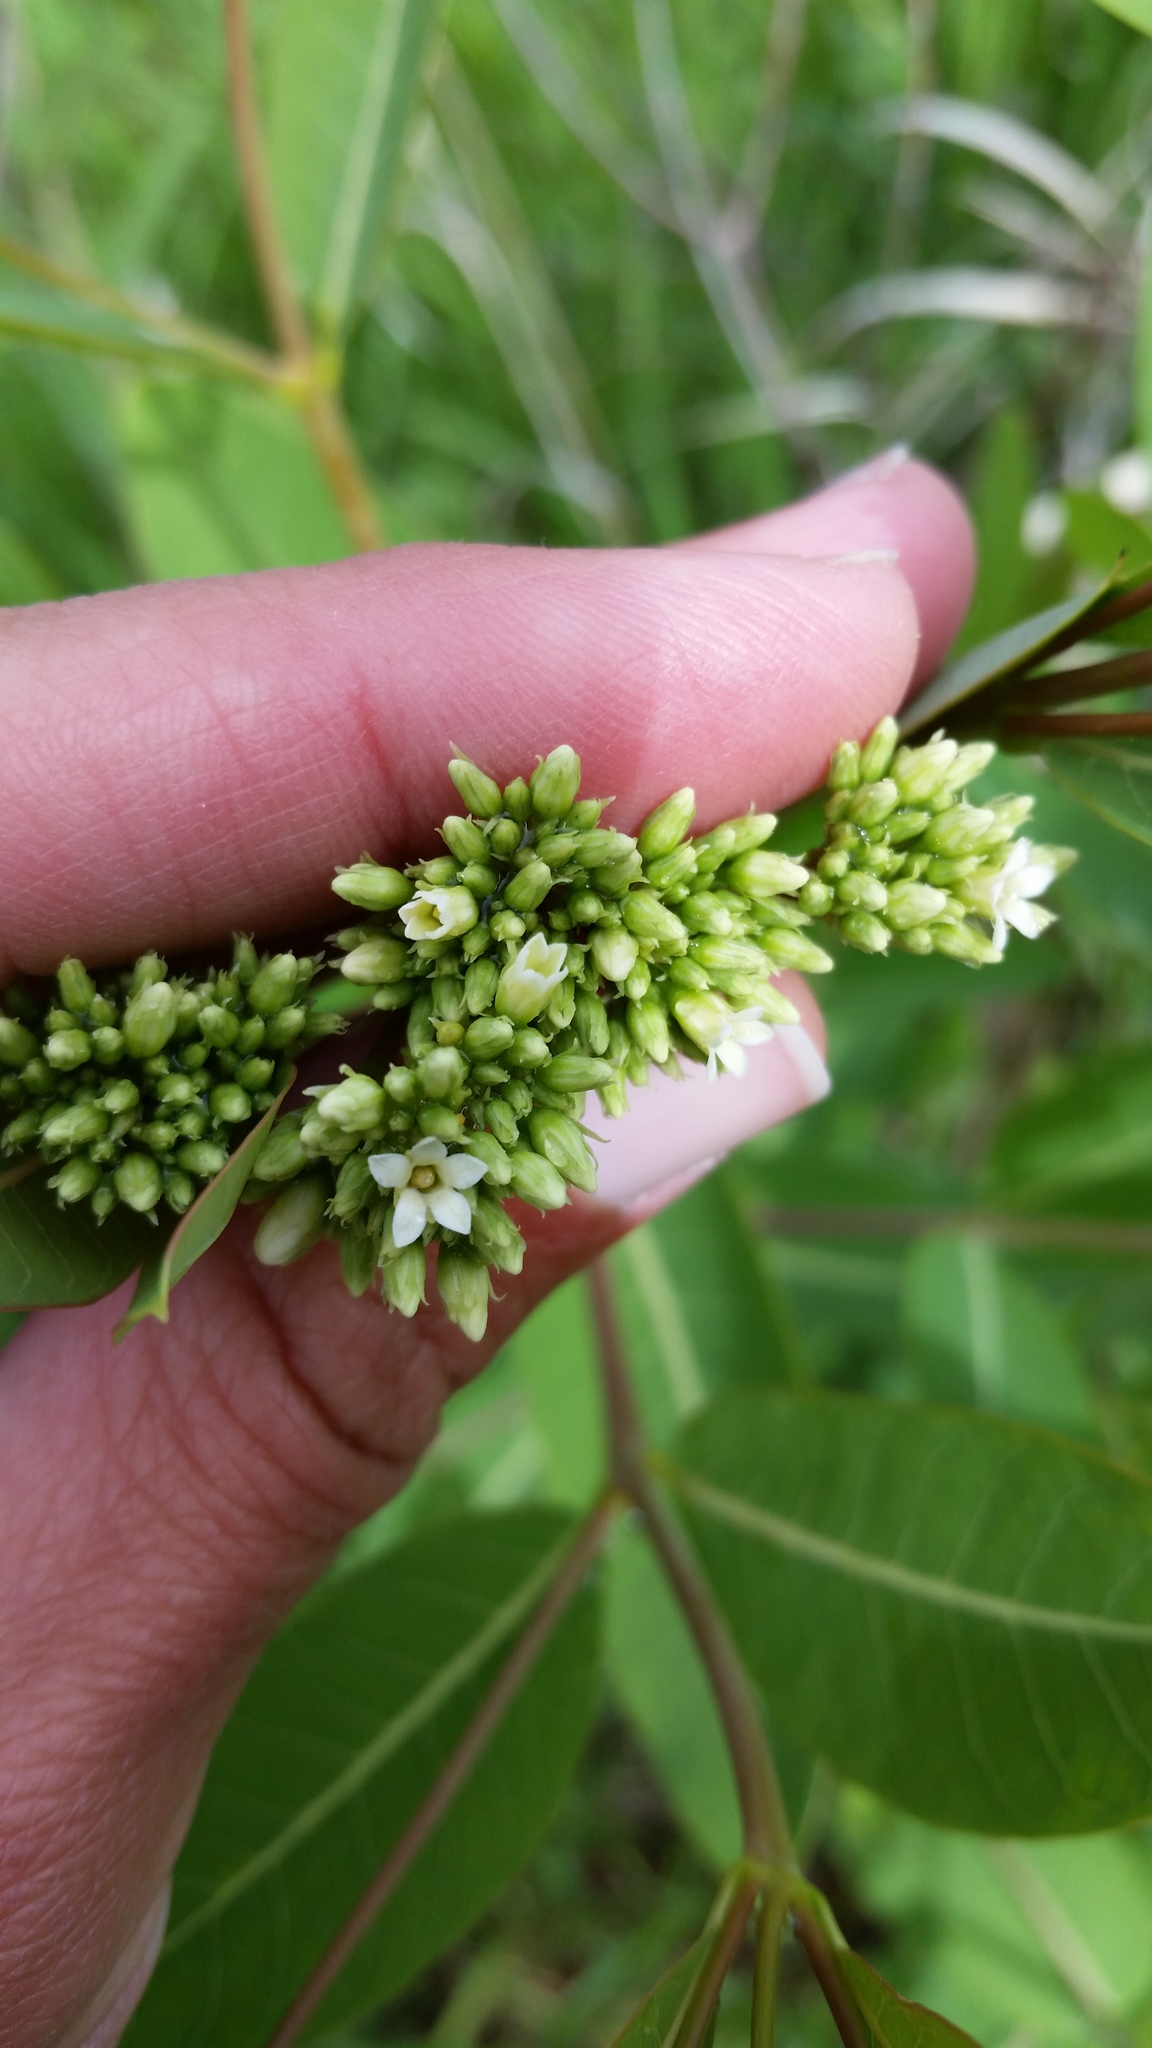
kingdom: Plantae
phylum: Tracheophyta
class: Magnoliopsida
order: Gentianales
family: Apocynaceae
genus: Apocynum
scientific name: Apocynum cannabinum
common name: Hemp dogbane
